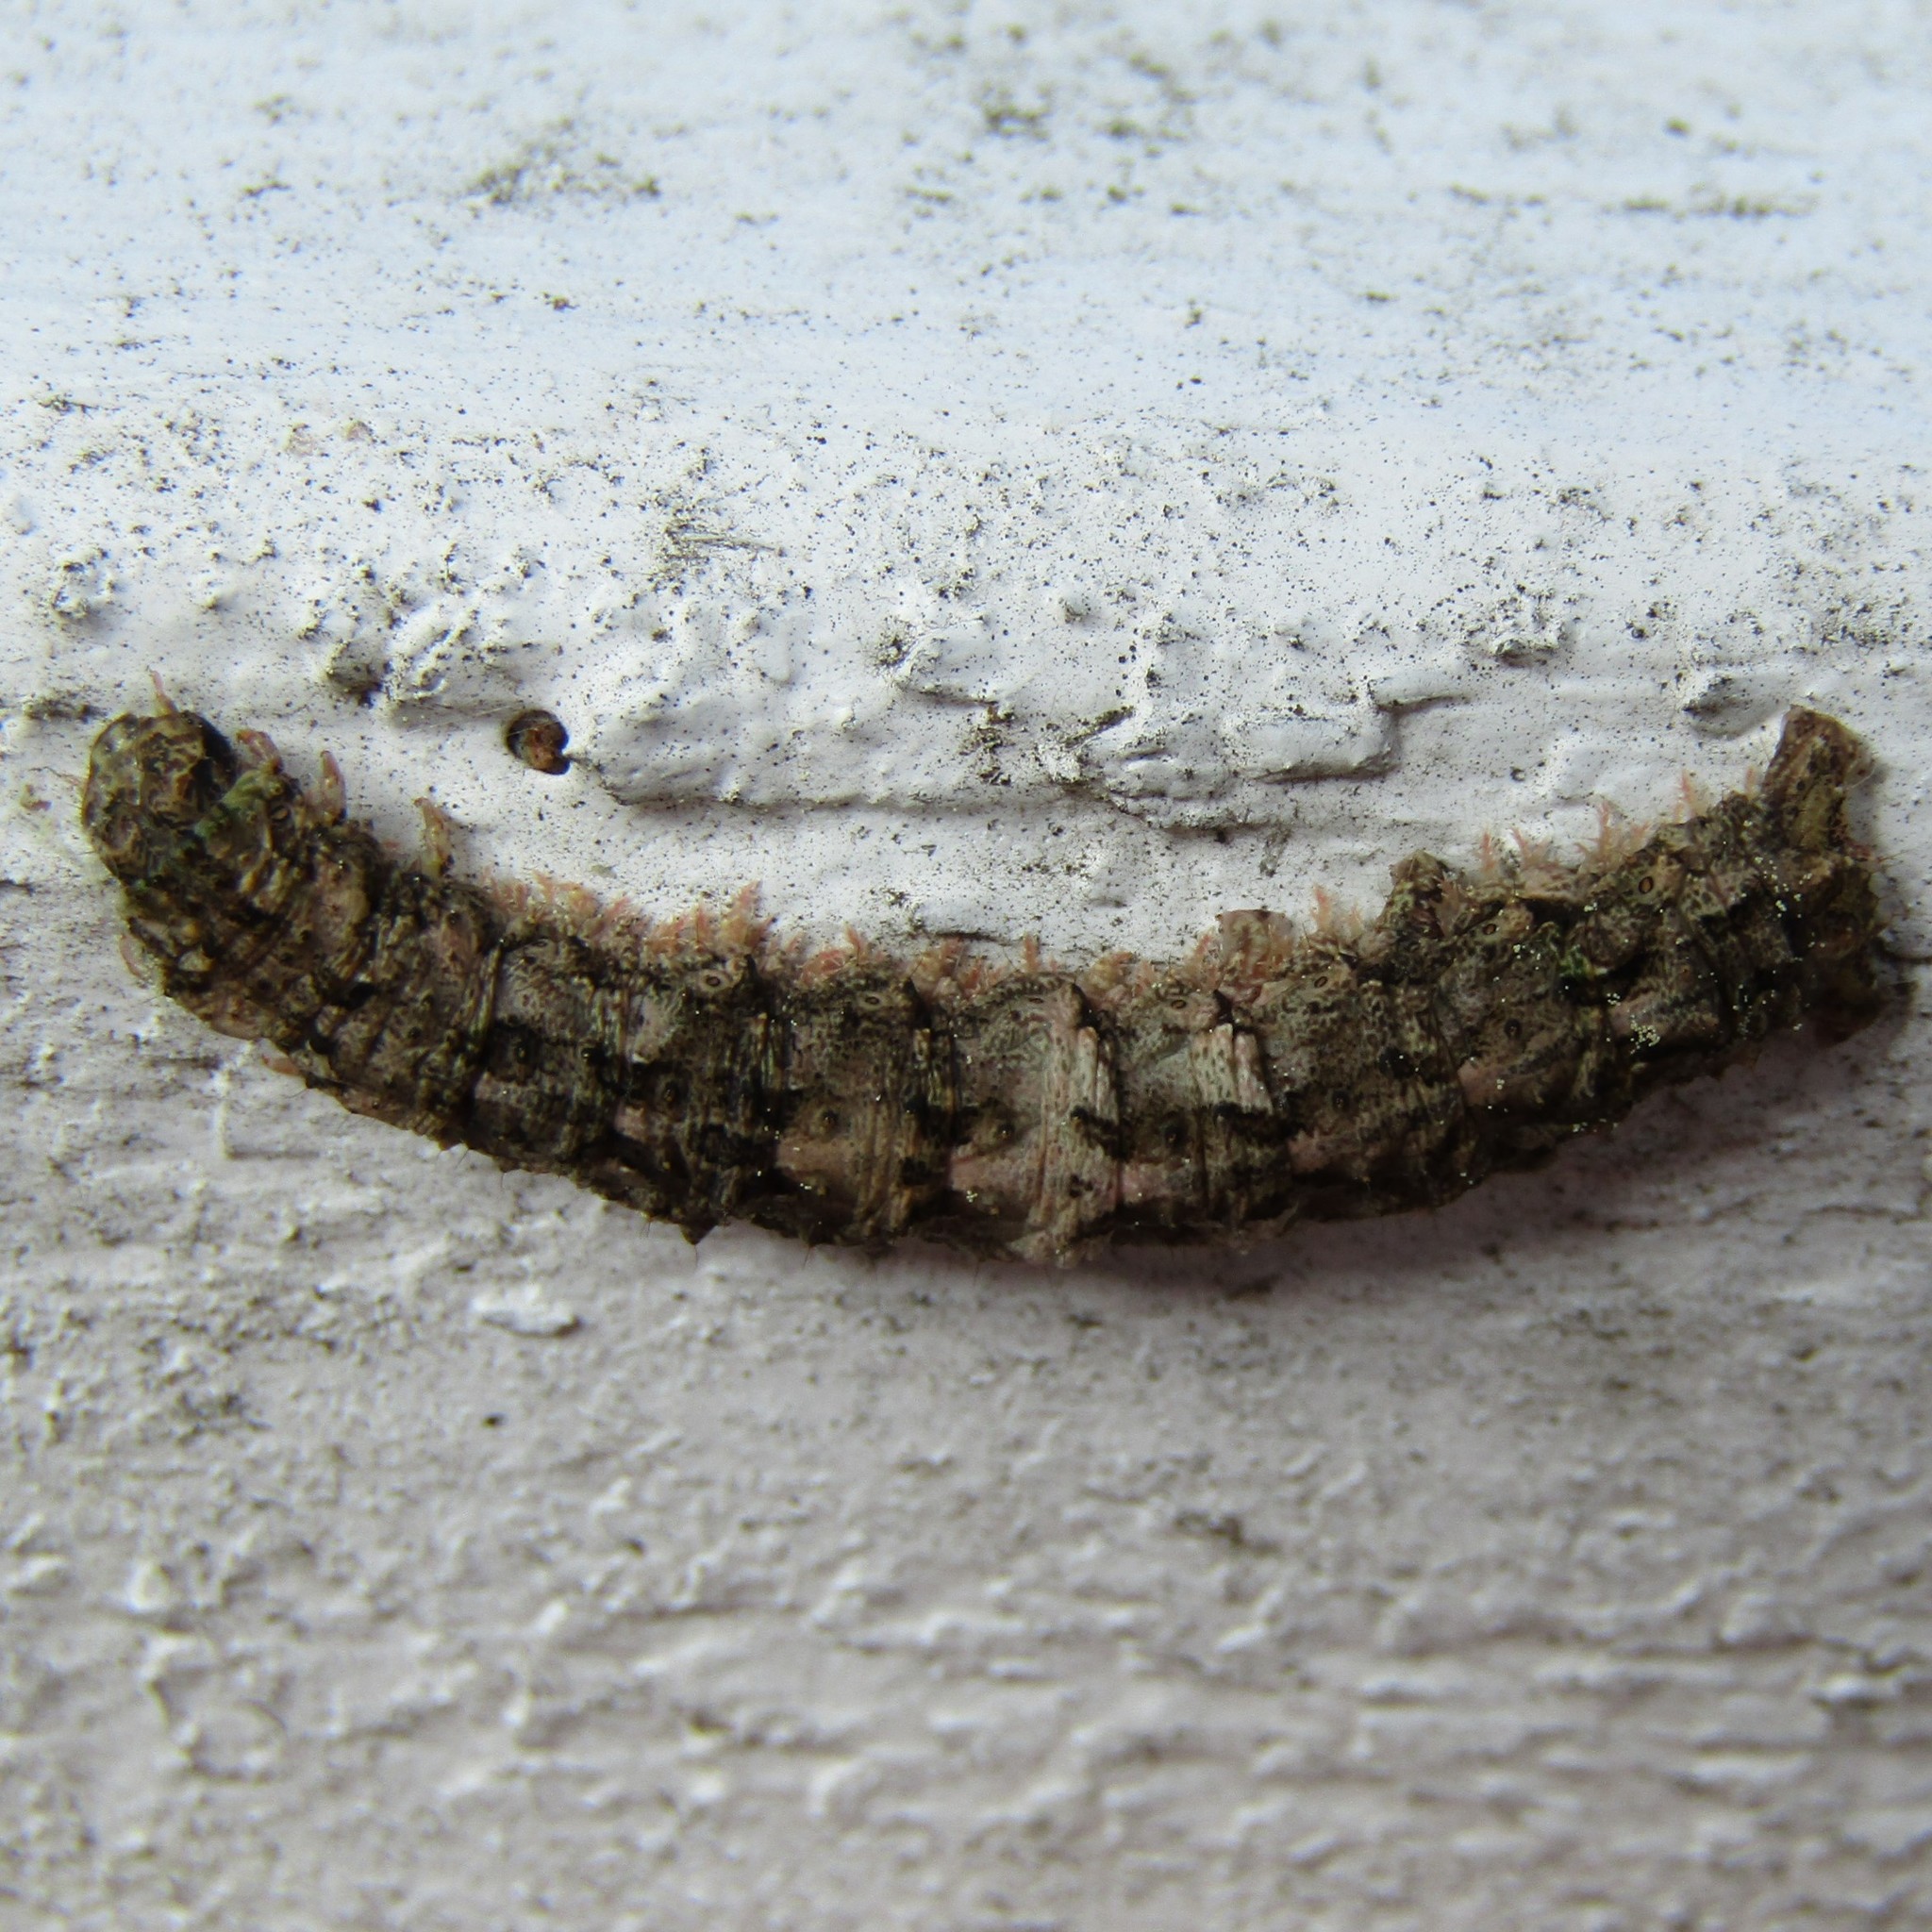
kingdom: Animalia
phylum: Arthropoda
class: Insecta
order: Lepidoptera
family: Geometridae
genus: Declana
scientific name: Declana floccosa
